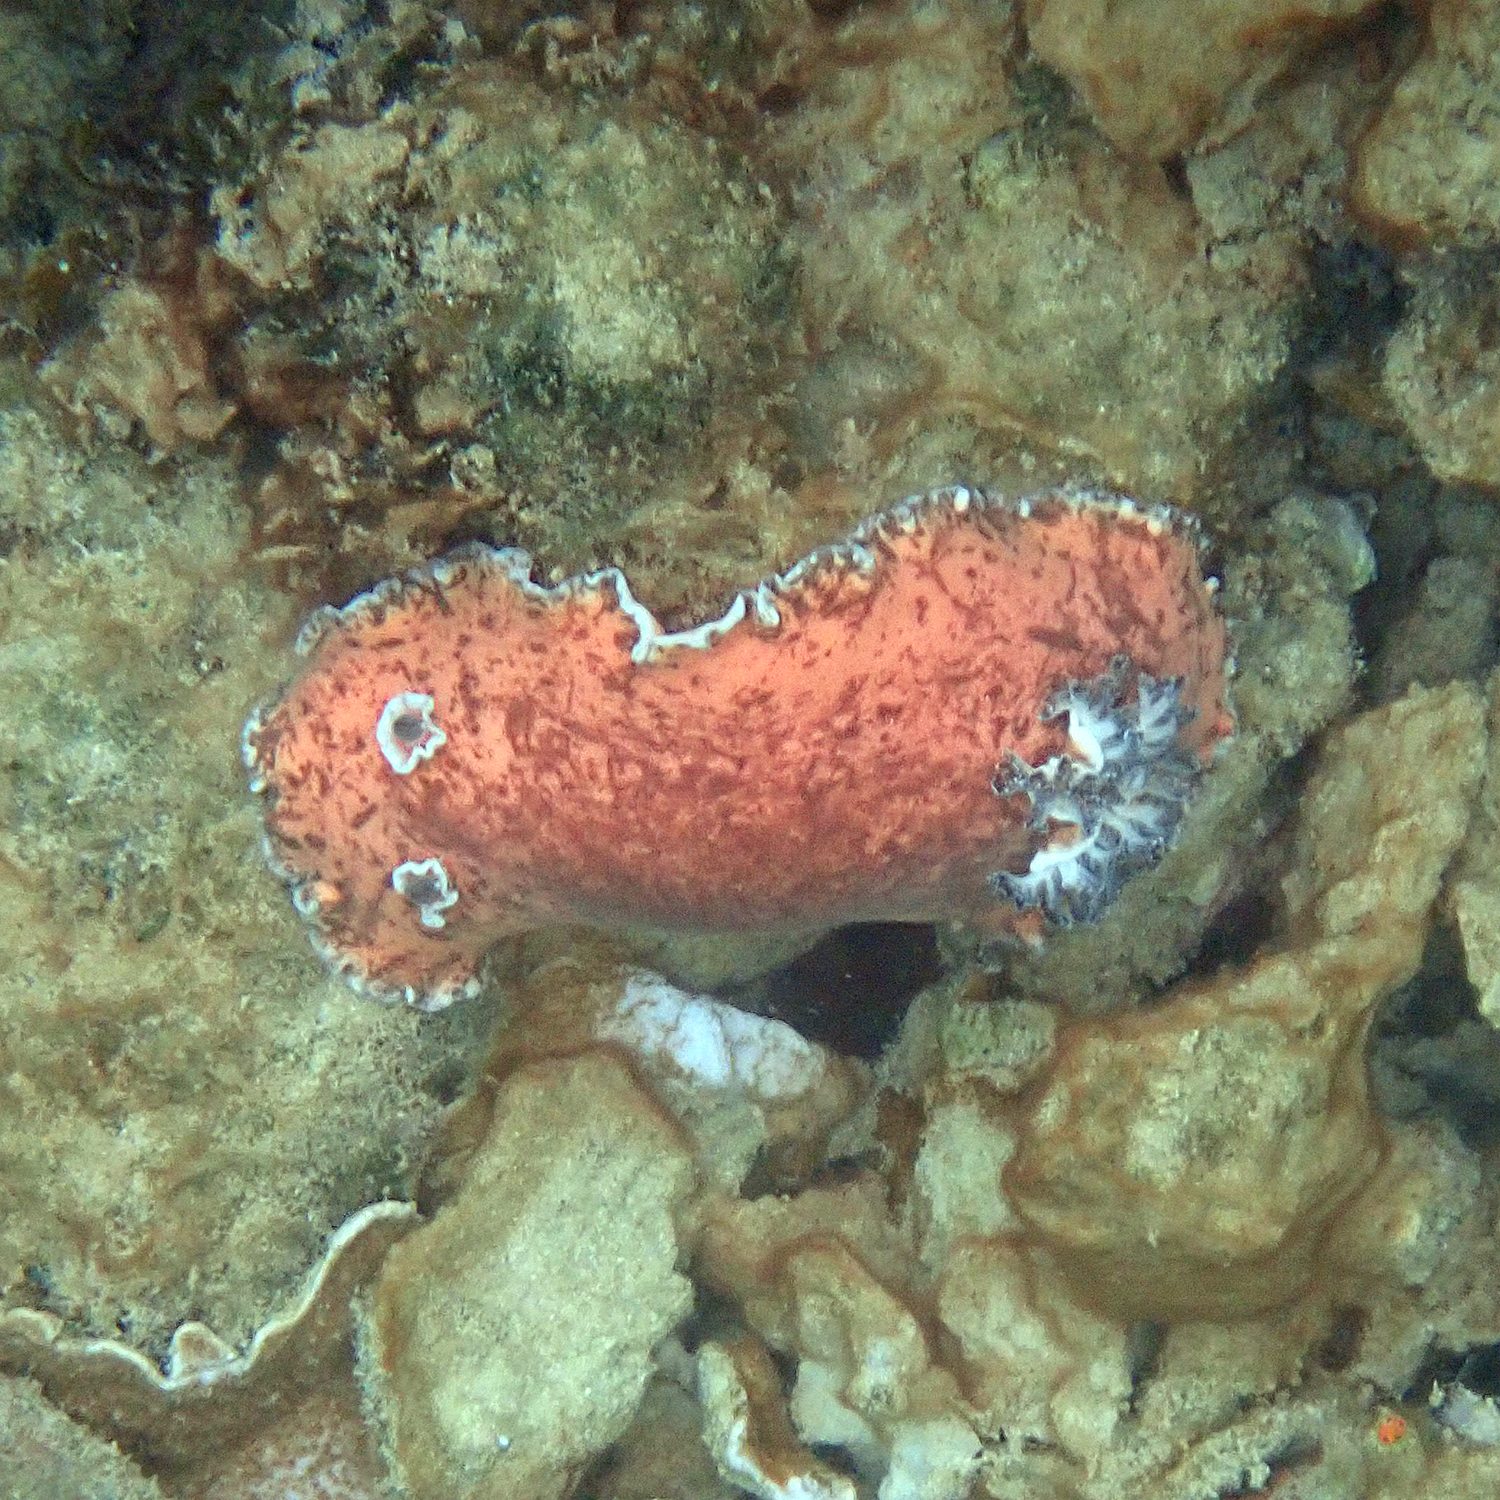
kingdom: Animalia
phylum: Mollusca
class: Gastropoda
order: Nudibranchia
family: Discodorididae
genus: Platydoris
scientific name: Platydoris cinereobranchiata
